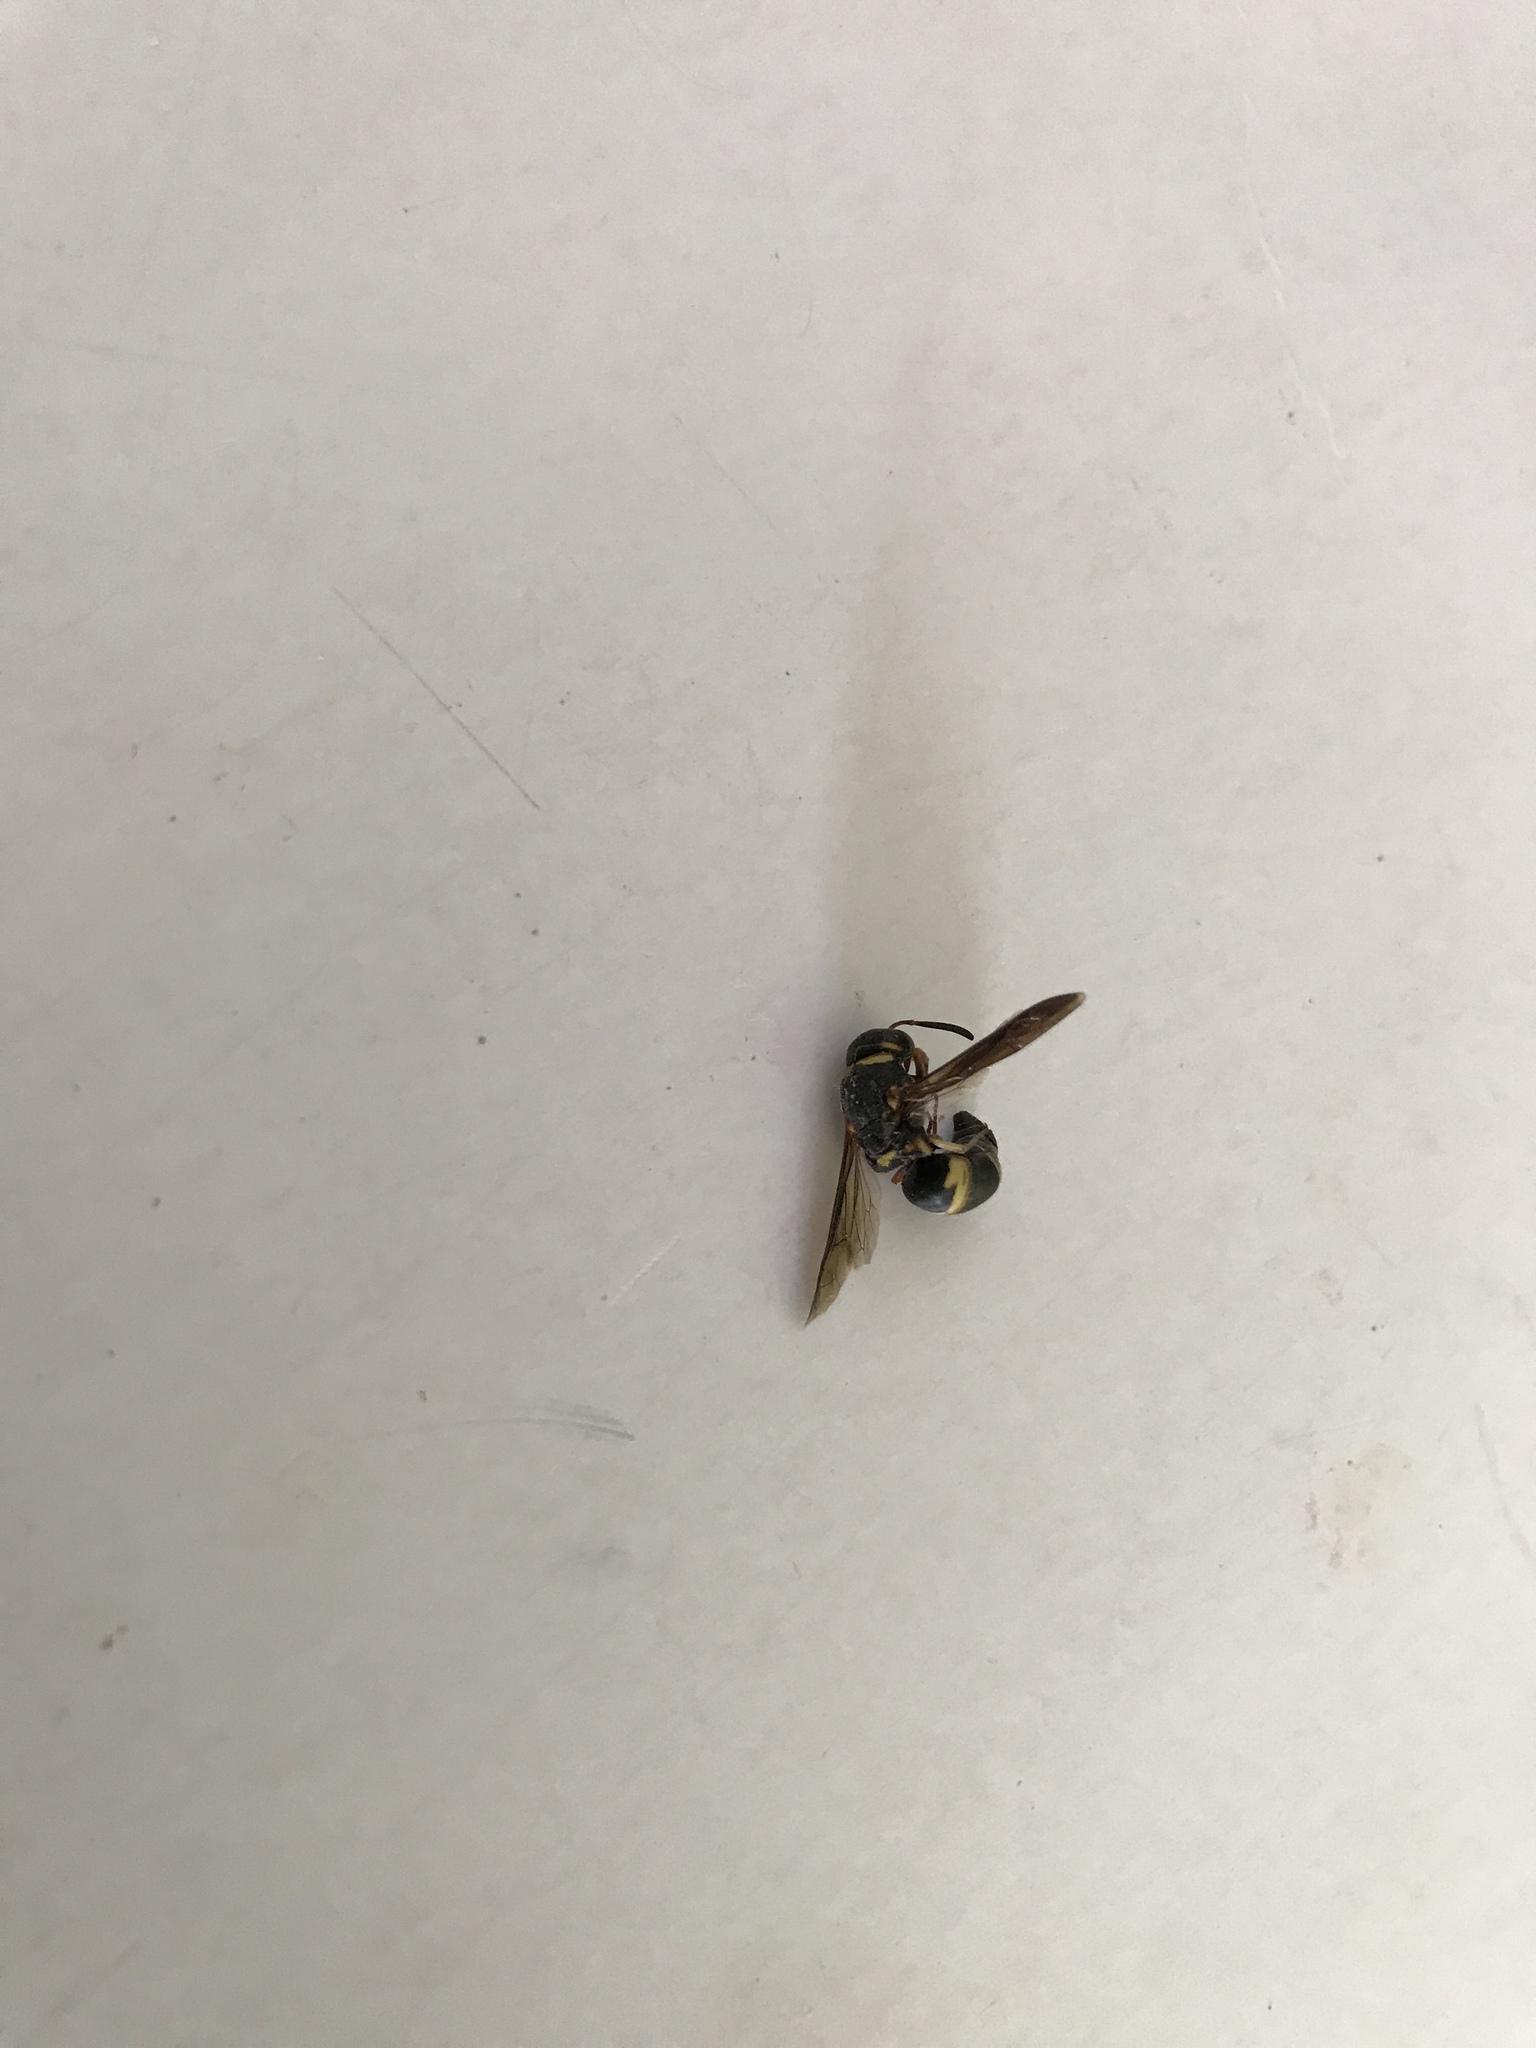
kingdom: Animalia
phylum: Arthropoda
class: Insecta
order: Hymenoptera
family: Eumenidae
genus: Euodynerus
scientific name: Euodynerus hidalgo
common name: Wasp
